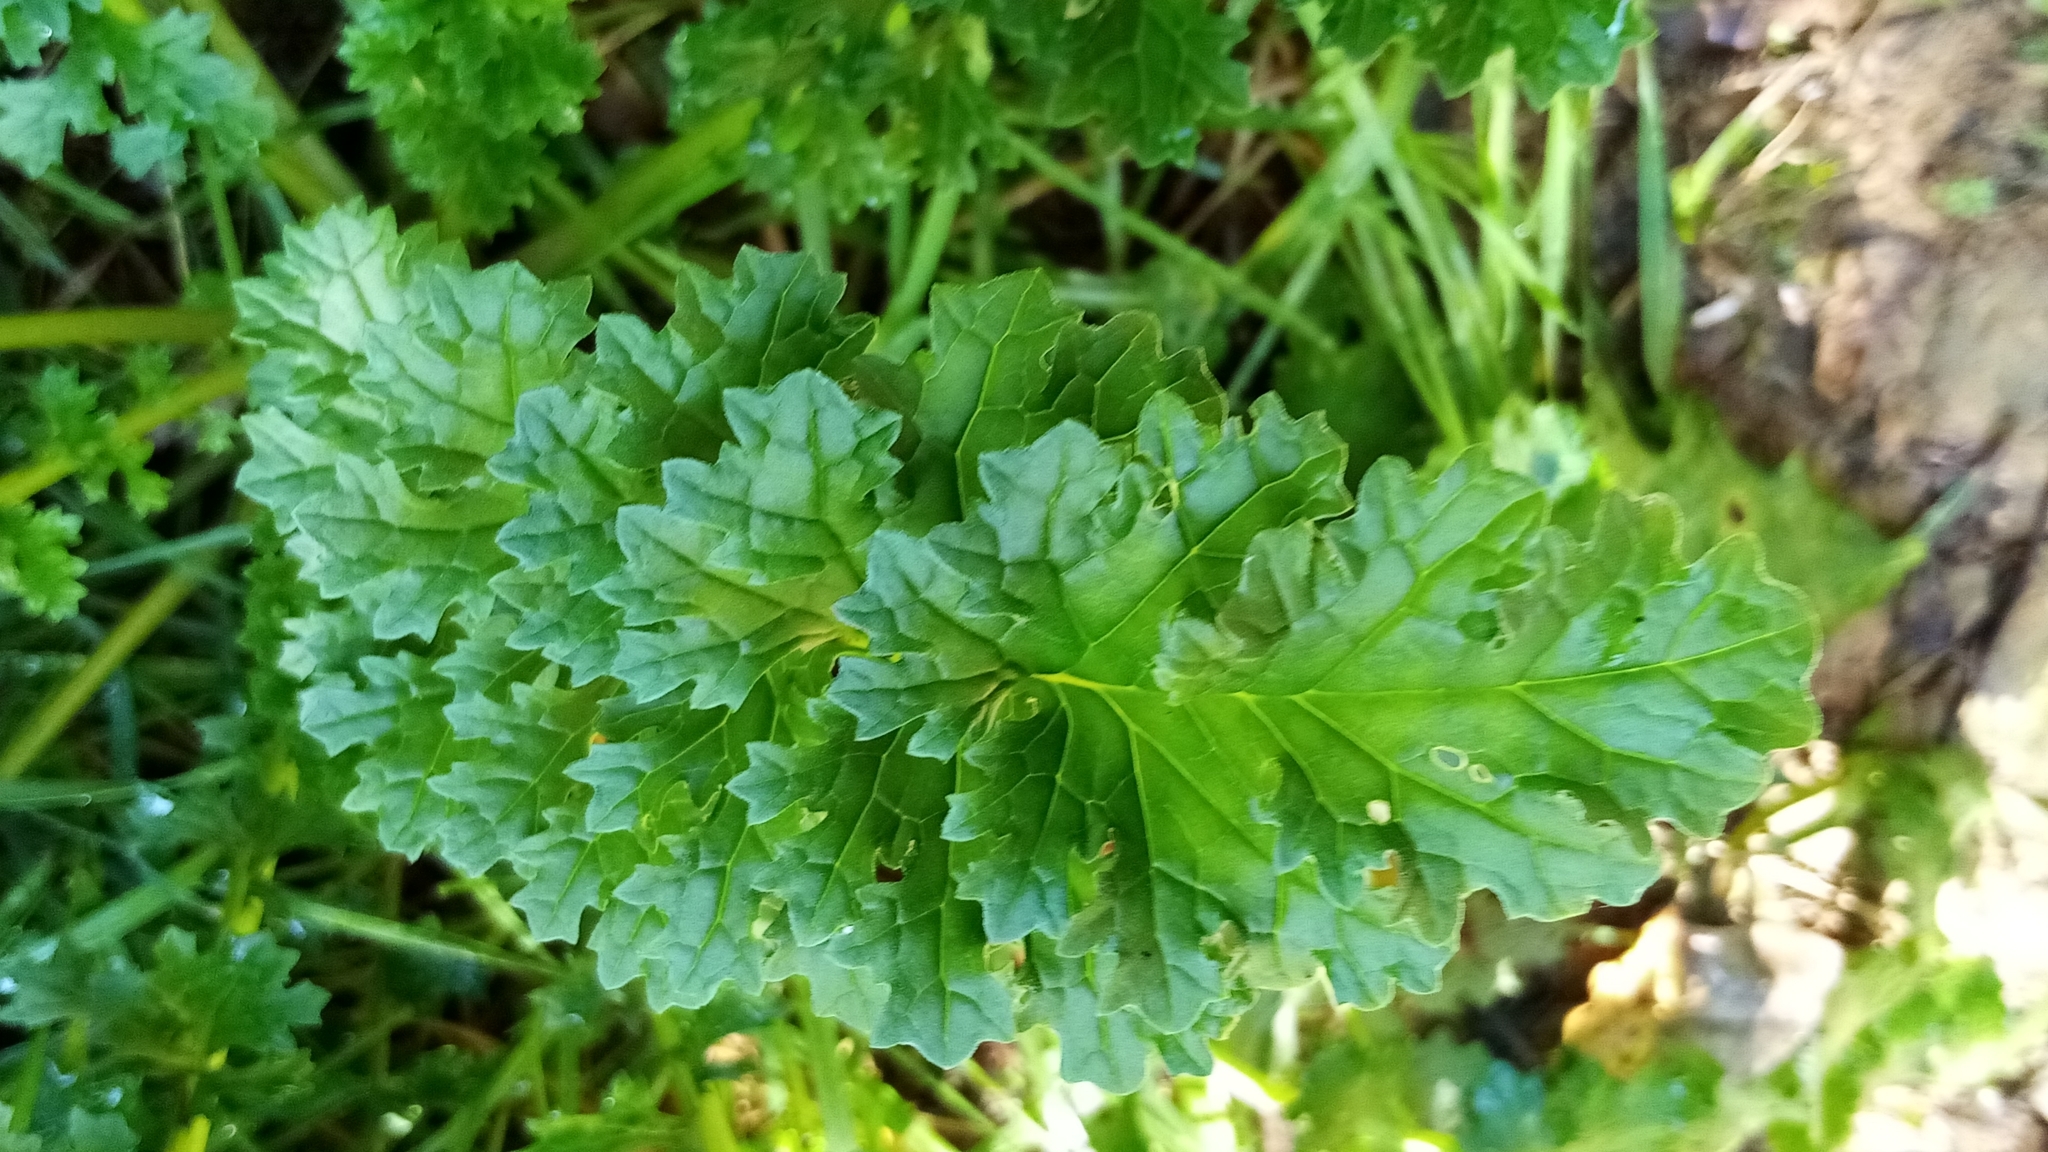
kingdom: Plantae
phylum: Tracheophyta
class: Magnoliopsida
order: Asterales
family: Asteraceae
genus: Jacobaea
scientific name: Jacobaea vulgaris
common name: Stinking willie
